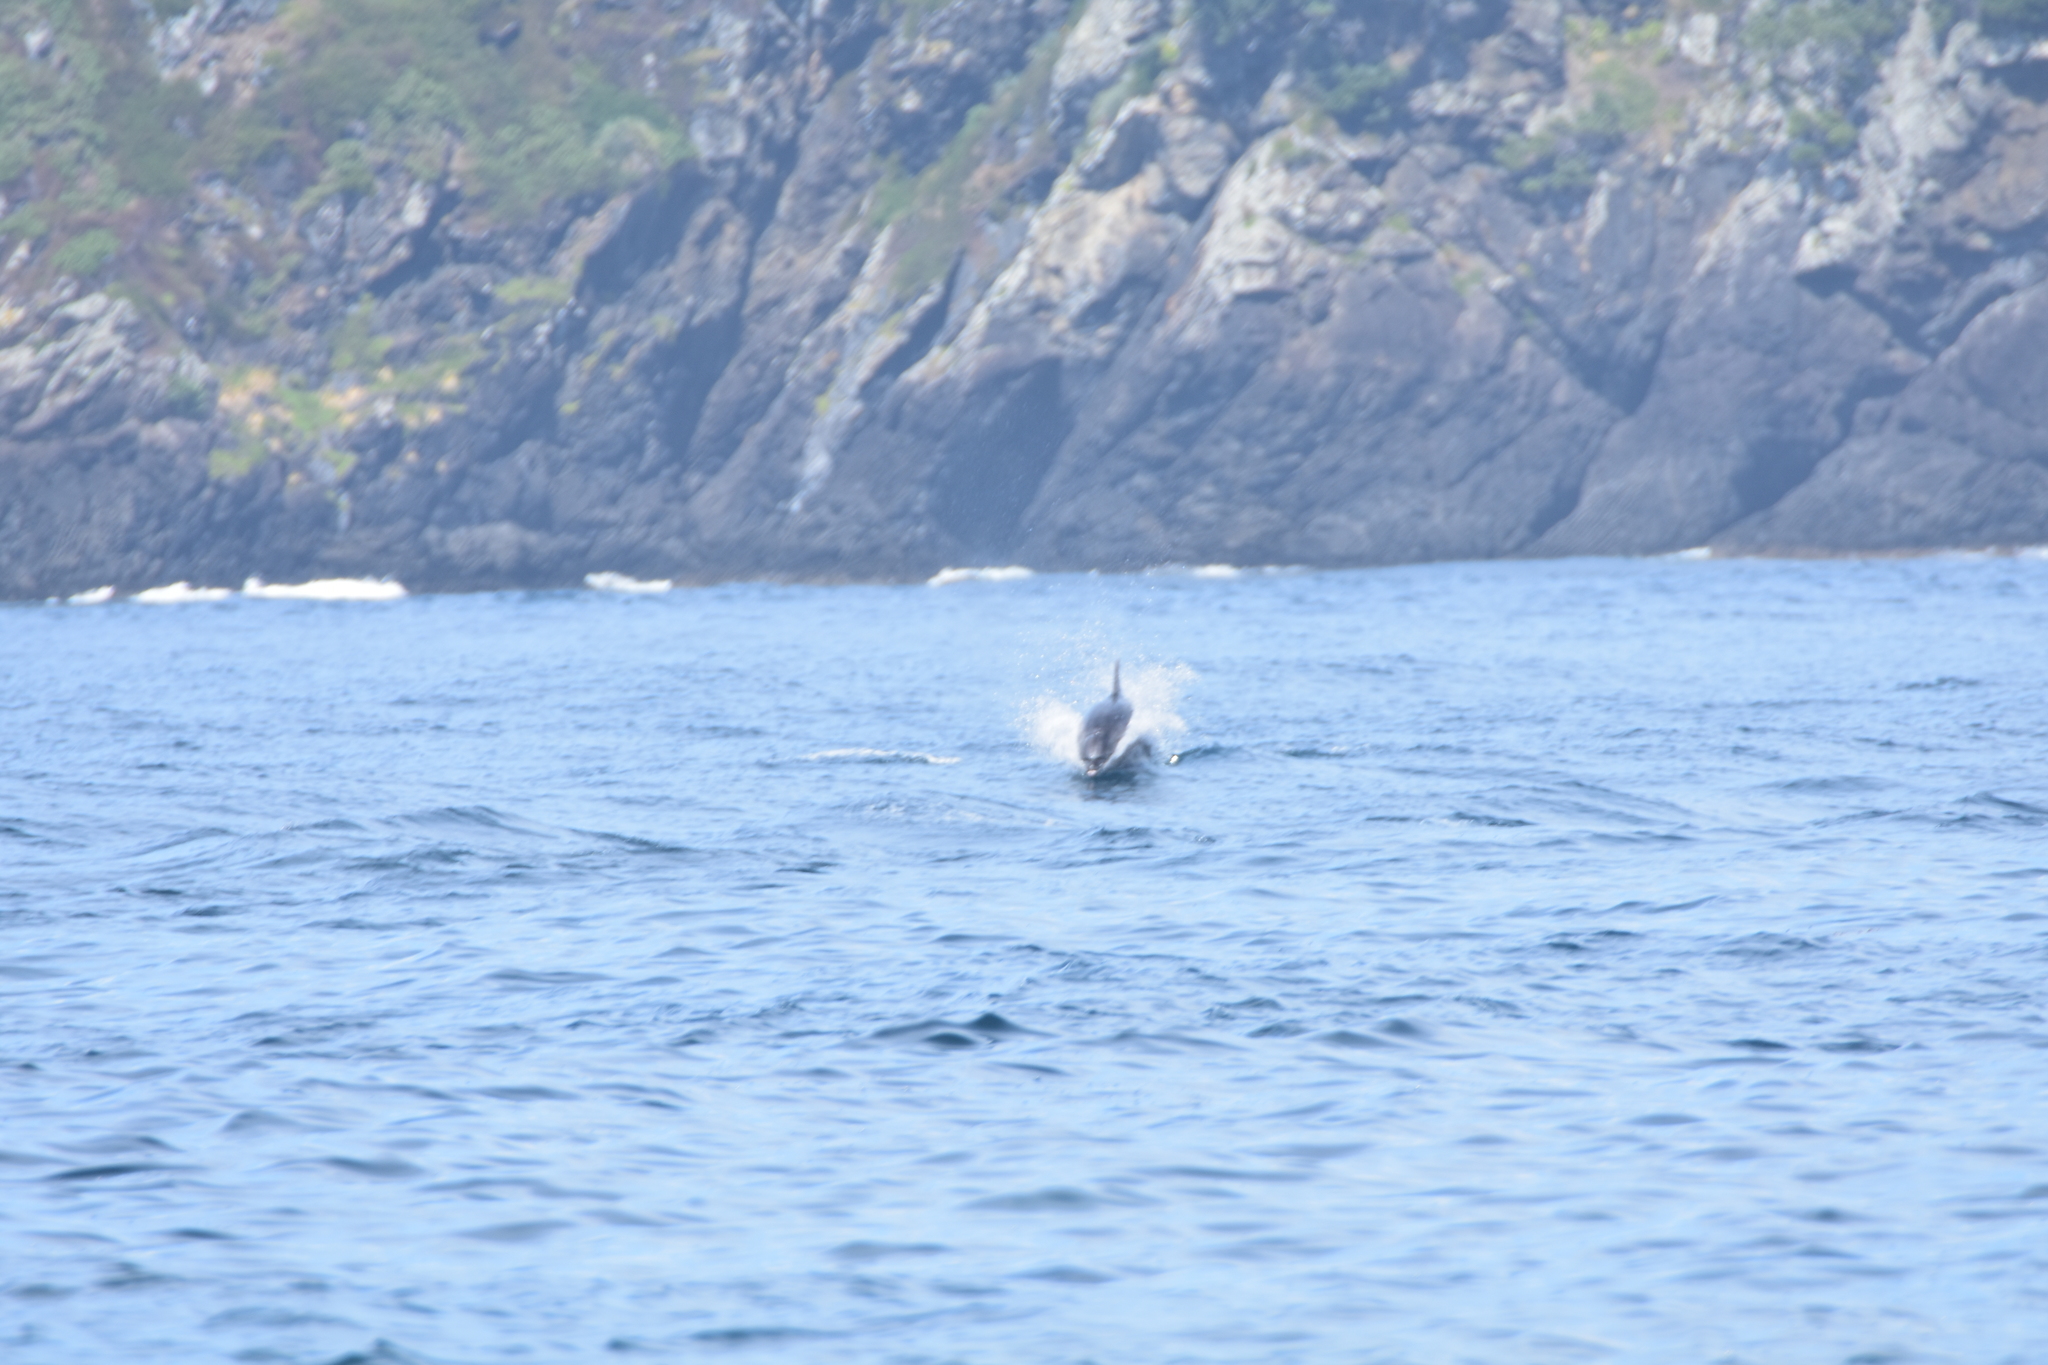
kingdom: Animalia
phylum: Chordata
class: Mammalia
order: Cetacea
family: Delphinidae
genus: Tursiops
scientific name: Tursiops truncatus
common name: Bottlenose dolphin
